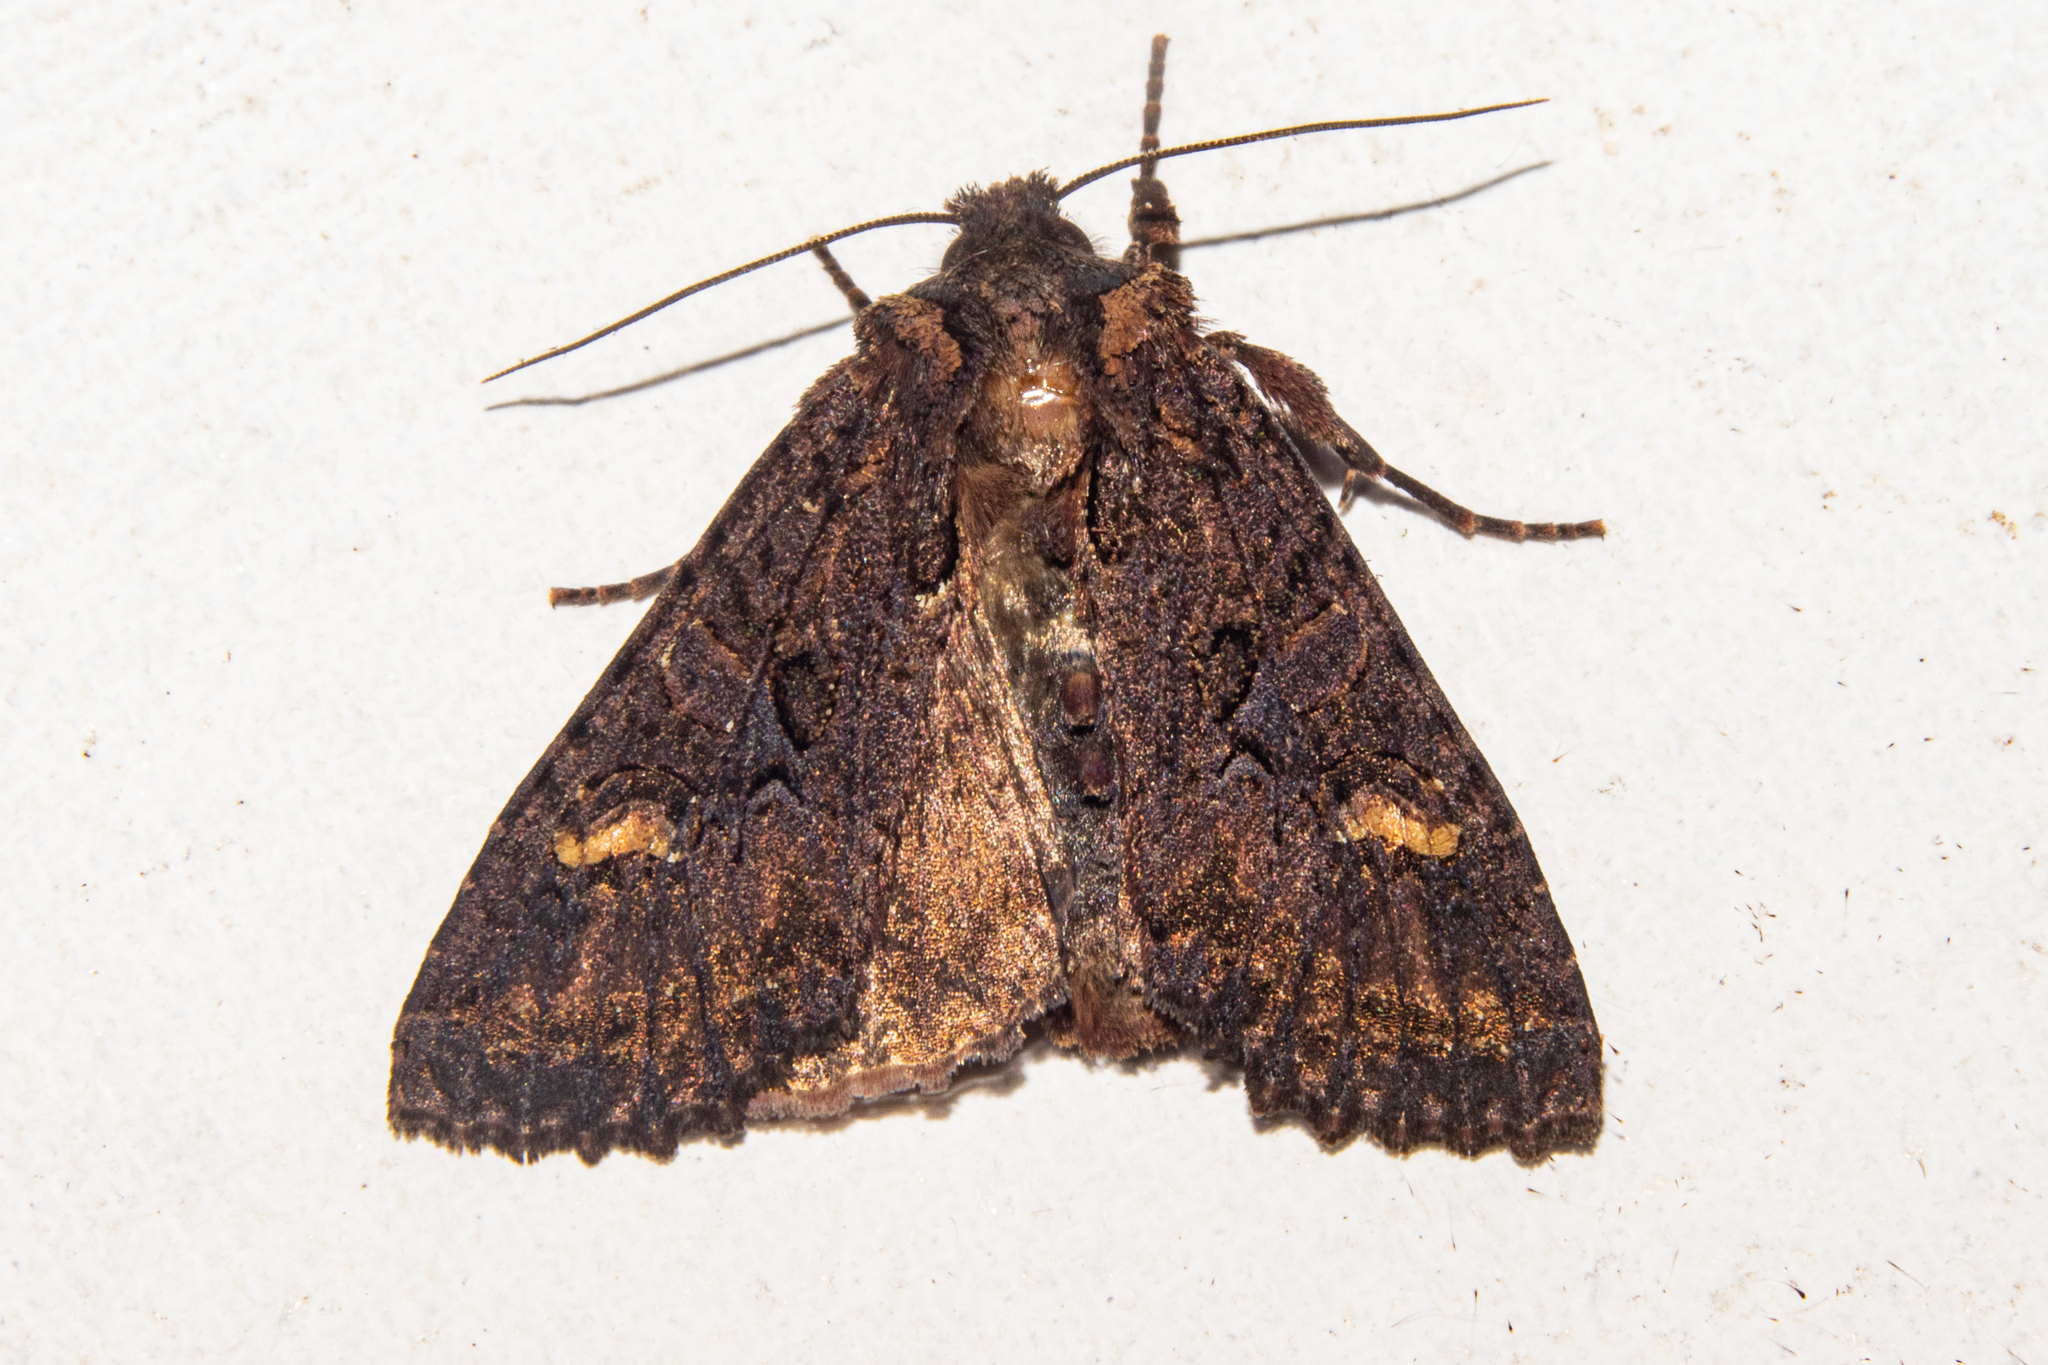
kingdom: Animalia
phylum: Arthropoda
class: Insecta
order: Lepidoptera
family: Noctuidae
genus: Meterana
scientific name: Meterana dotata
